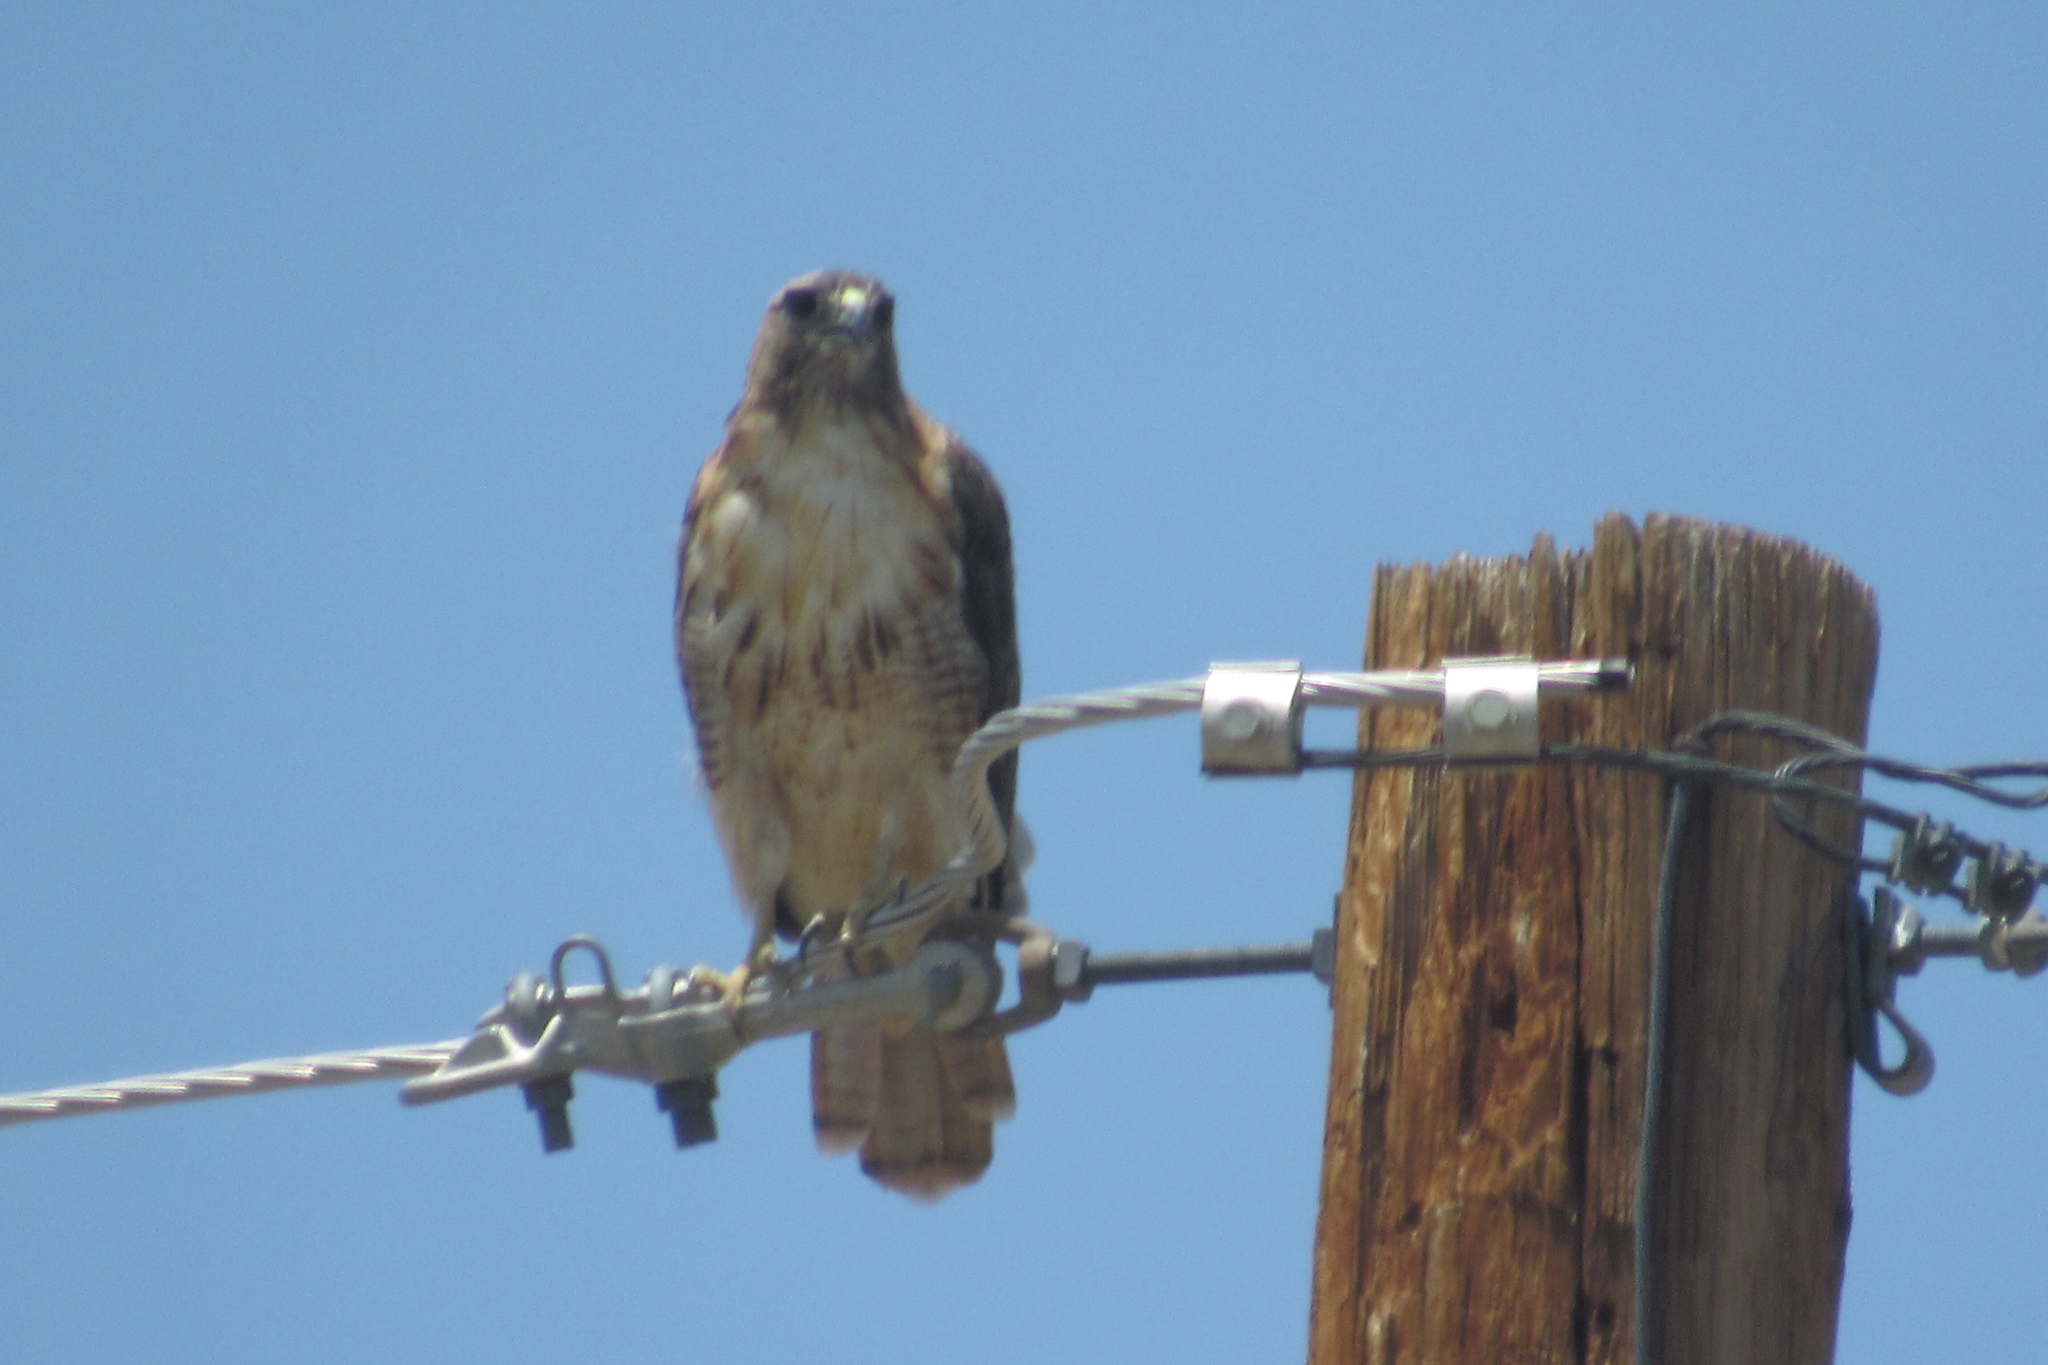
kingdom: Animalia
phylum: Chordata
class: Aves
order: Accipitriformes
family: Accipitridae
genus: Buteo
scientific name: Buteo jamaicensis
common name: Red-tailed hawk
